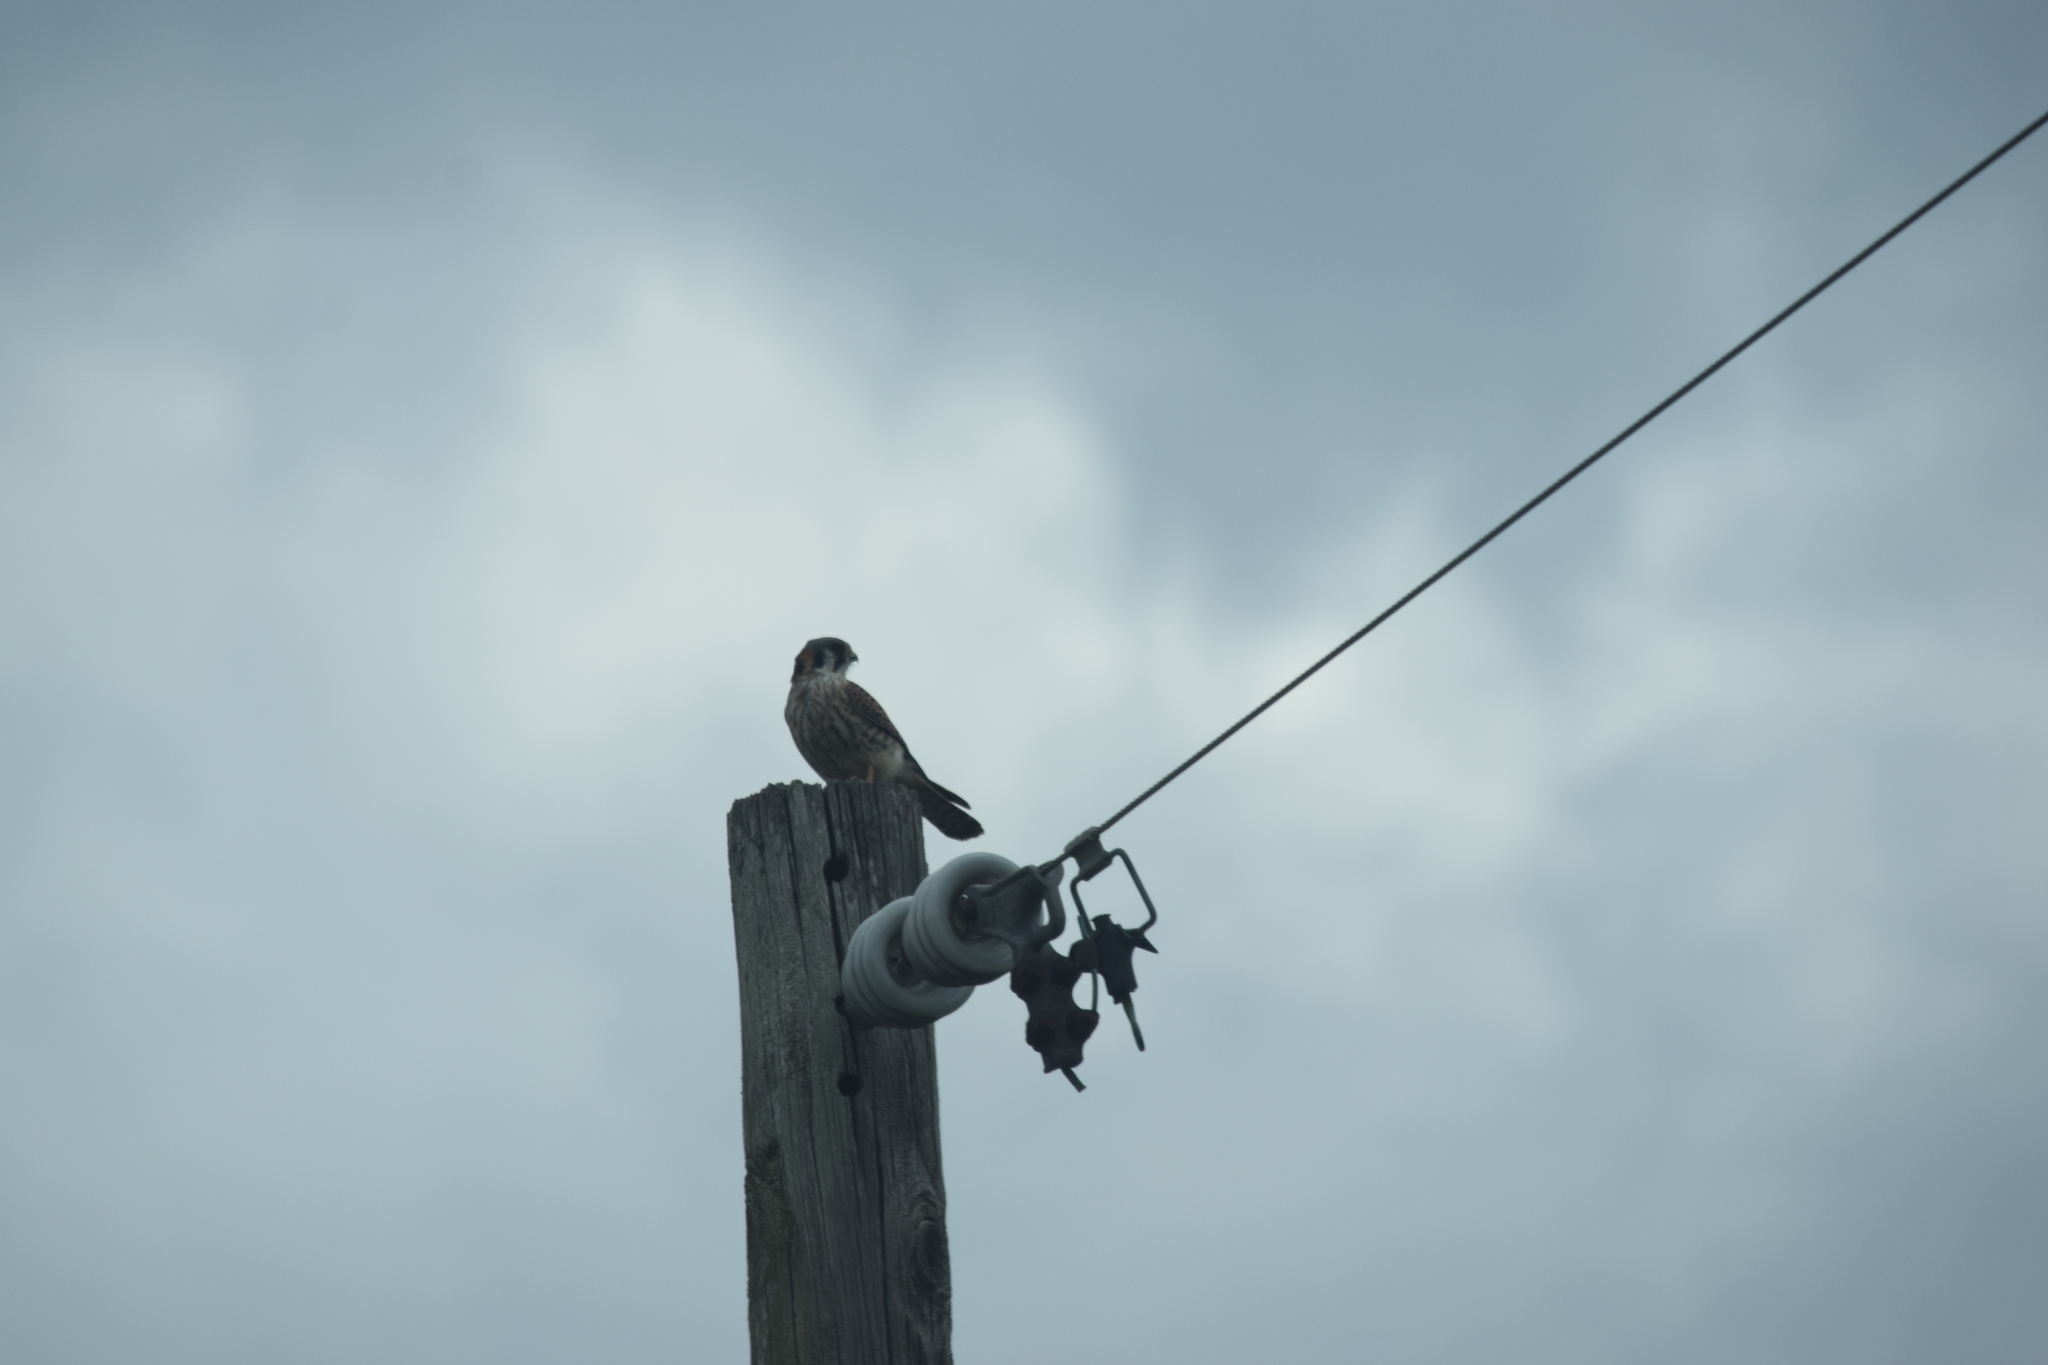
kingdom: Animalia
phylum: Chordata
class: Aves
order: Falconiformes
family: Falconidae
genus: Falco
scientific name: Falco sparverius
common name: American kestrel
